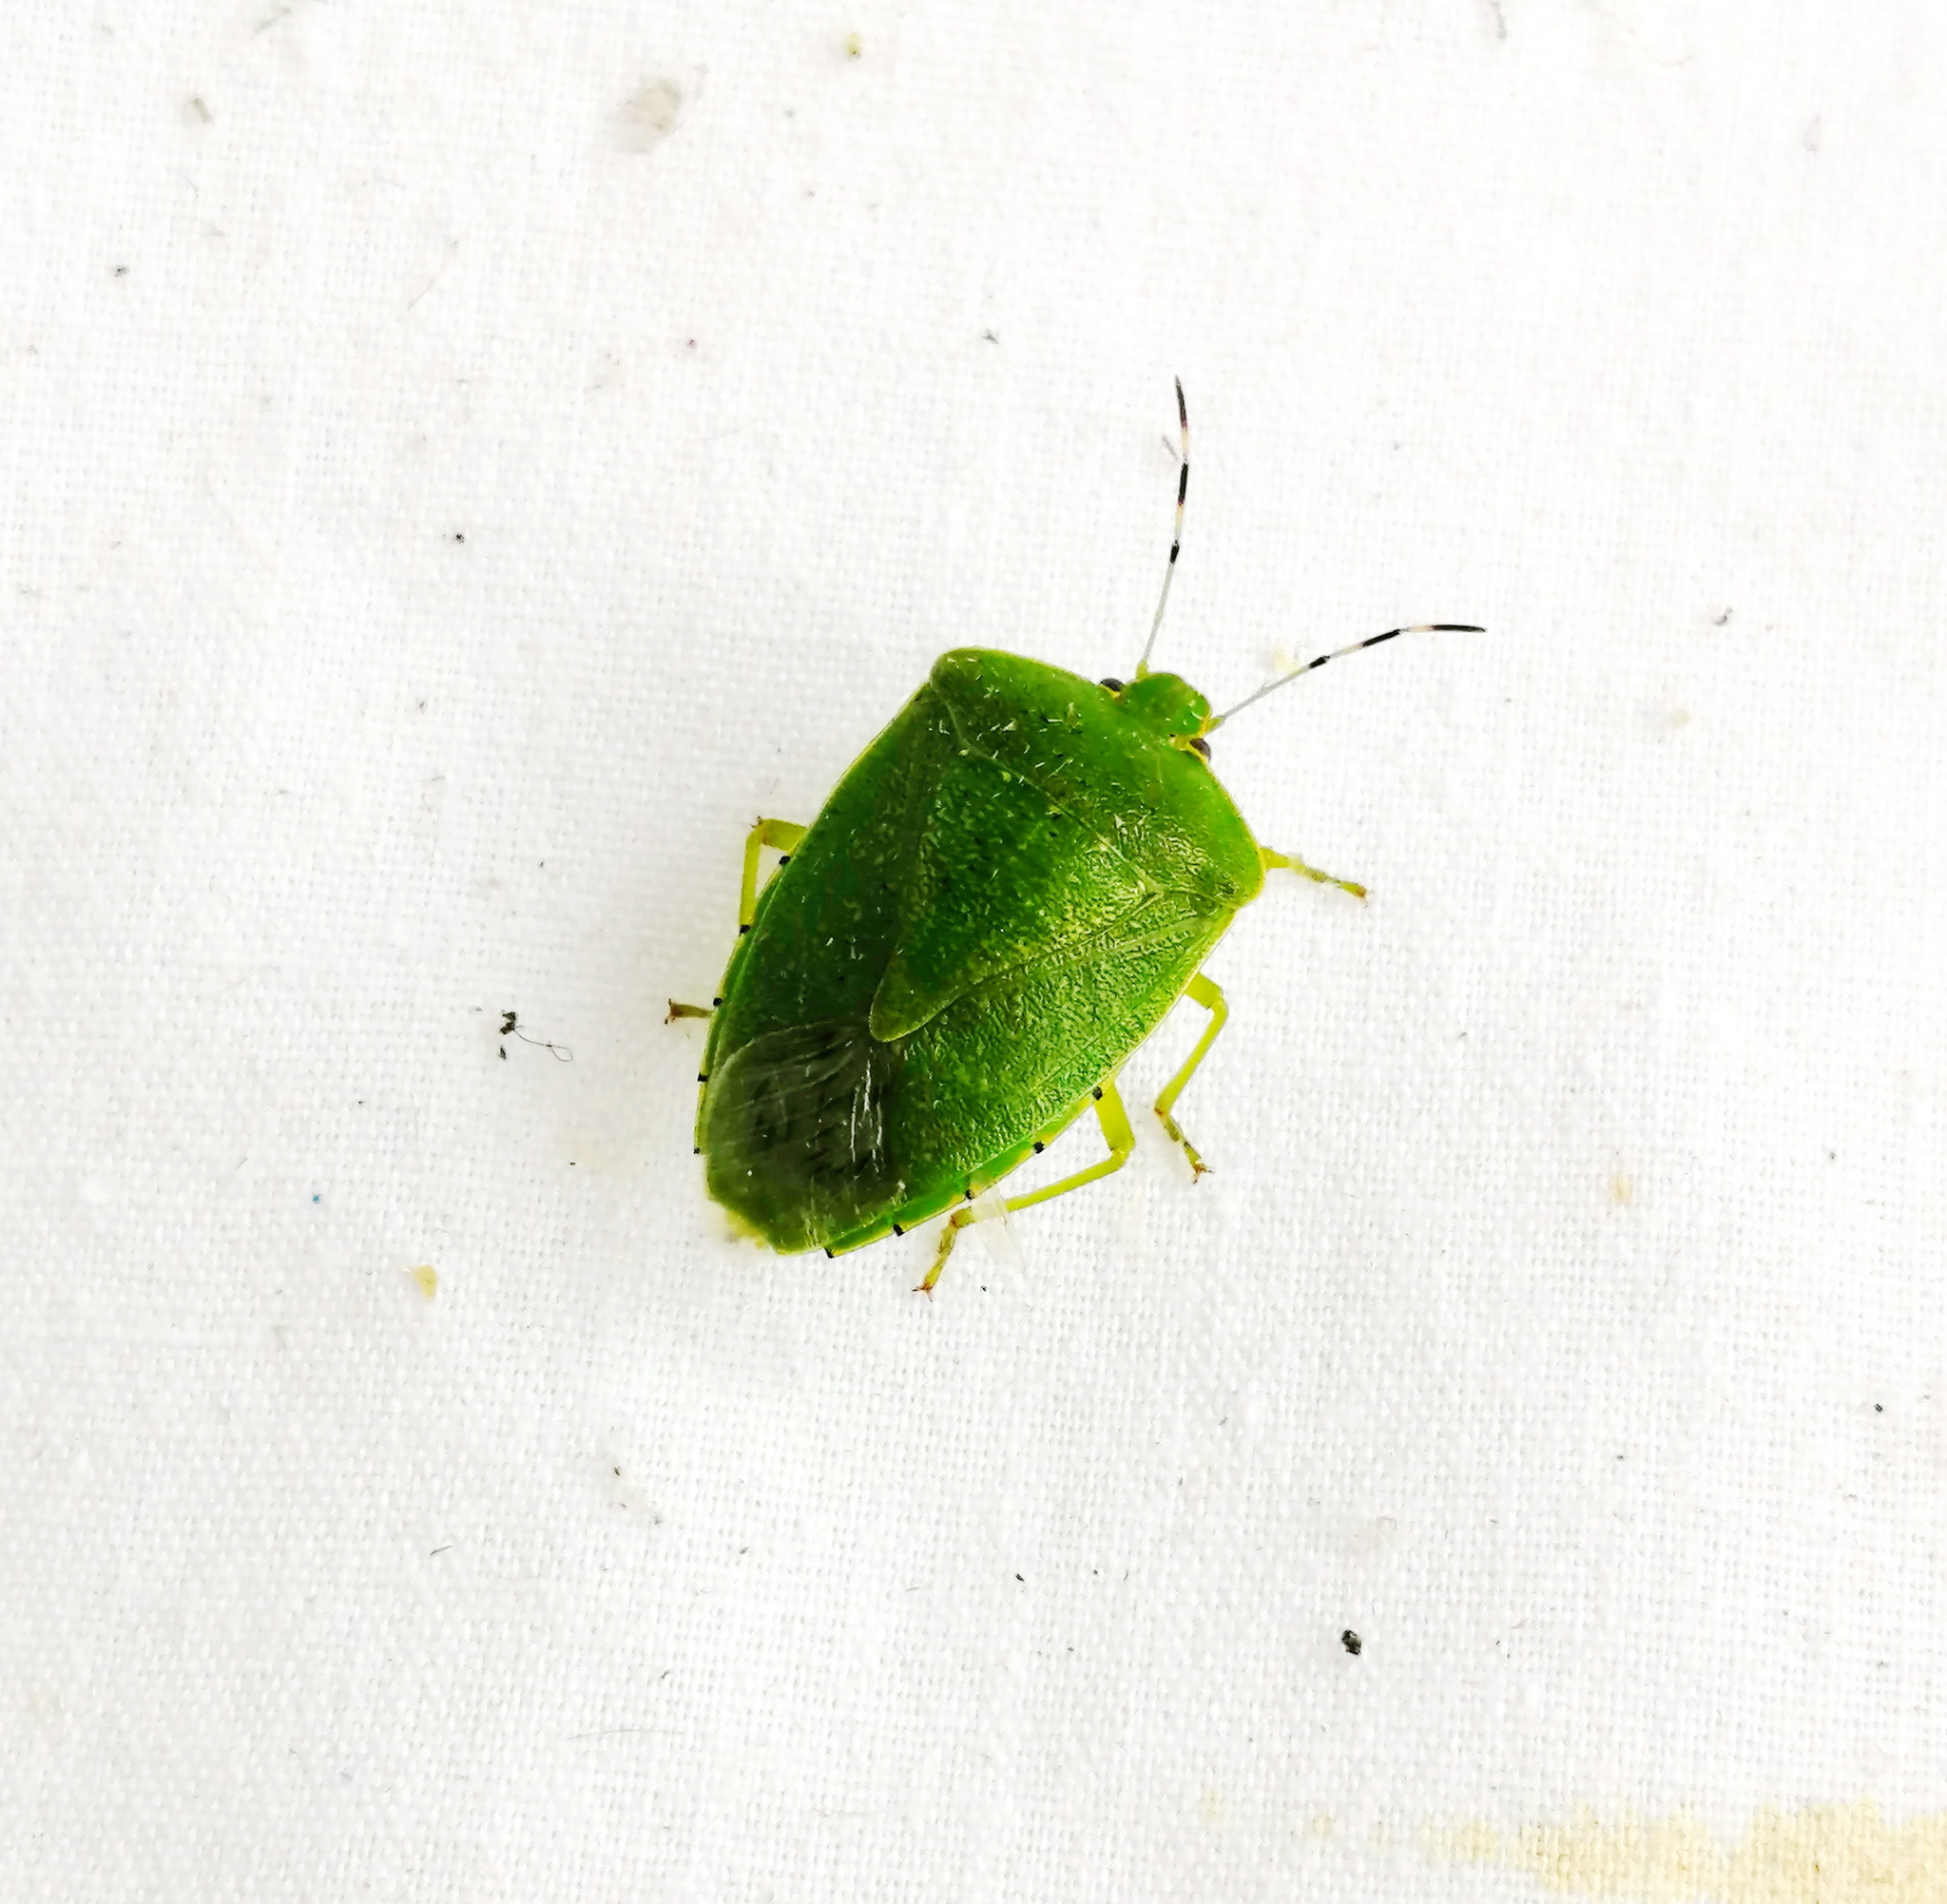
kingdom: Animalia
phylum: Arthropoda
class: Insecta
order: Hemiptera
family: Pentatomidae
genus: Chinavia
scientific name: Chinavia hilaris
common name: Green stink bug
